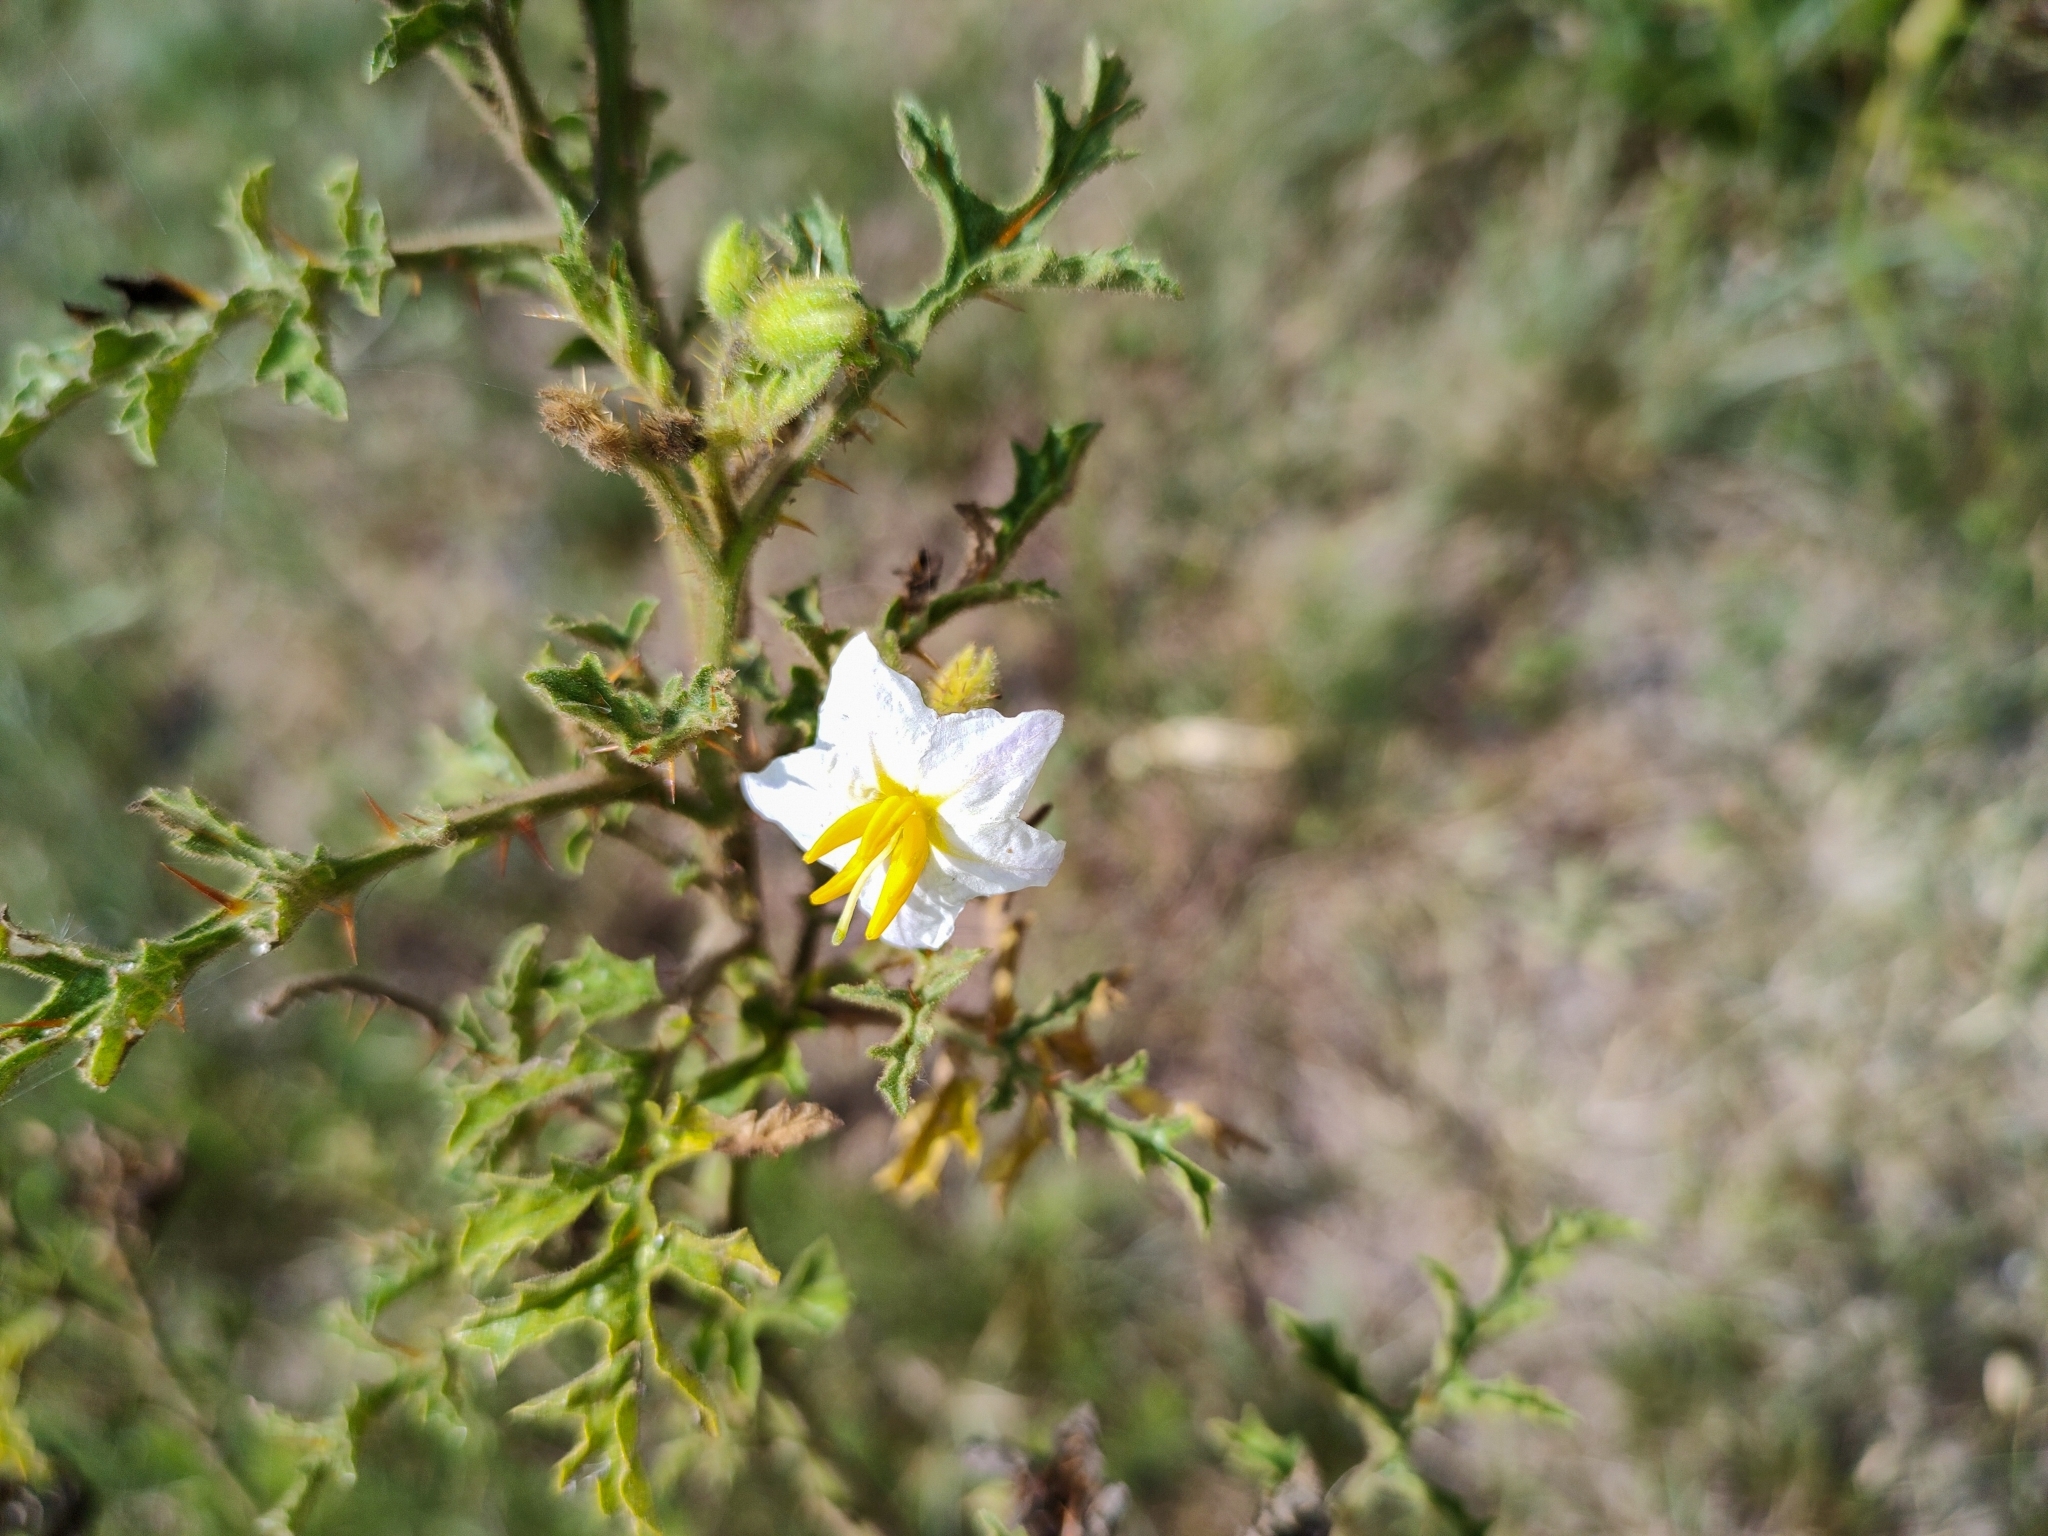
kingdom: Plantae
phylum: Tracheophyta
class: Magnoliopsida
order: Solanales
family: Solanaceae
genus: Solanum
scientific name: Solanum sisymbriifolium
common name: Red buffalo-bur
